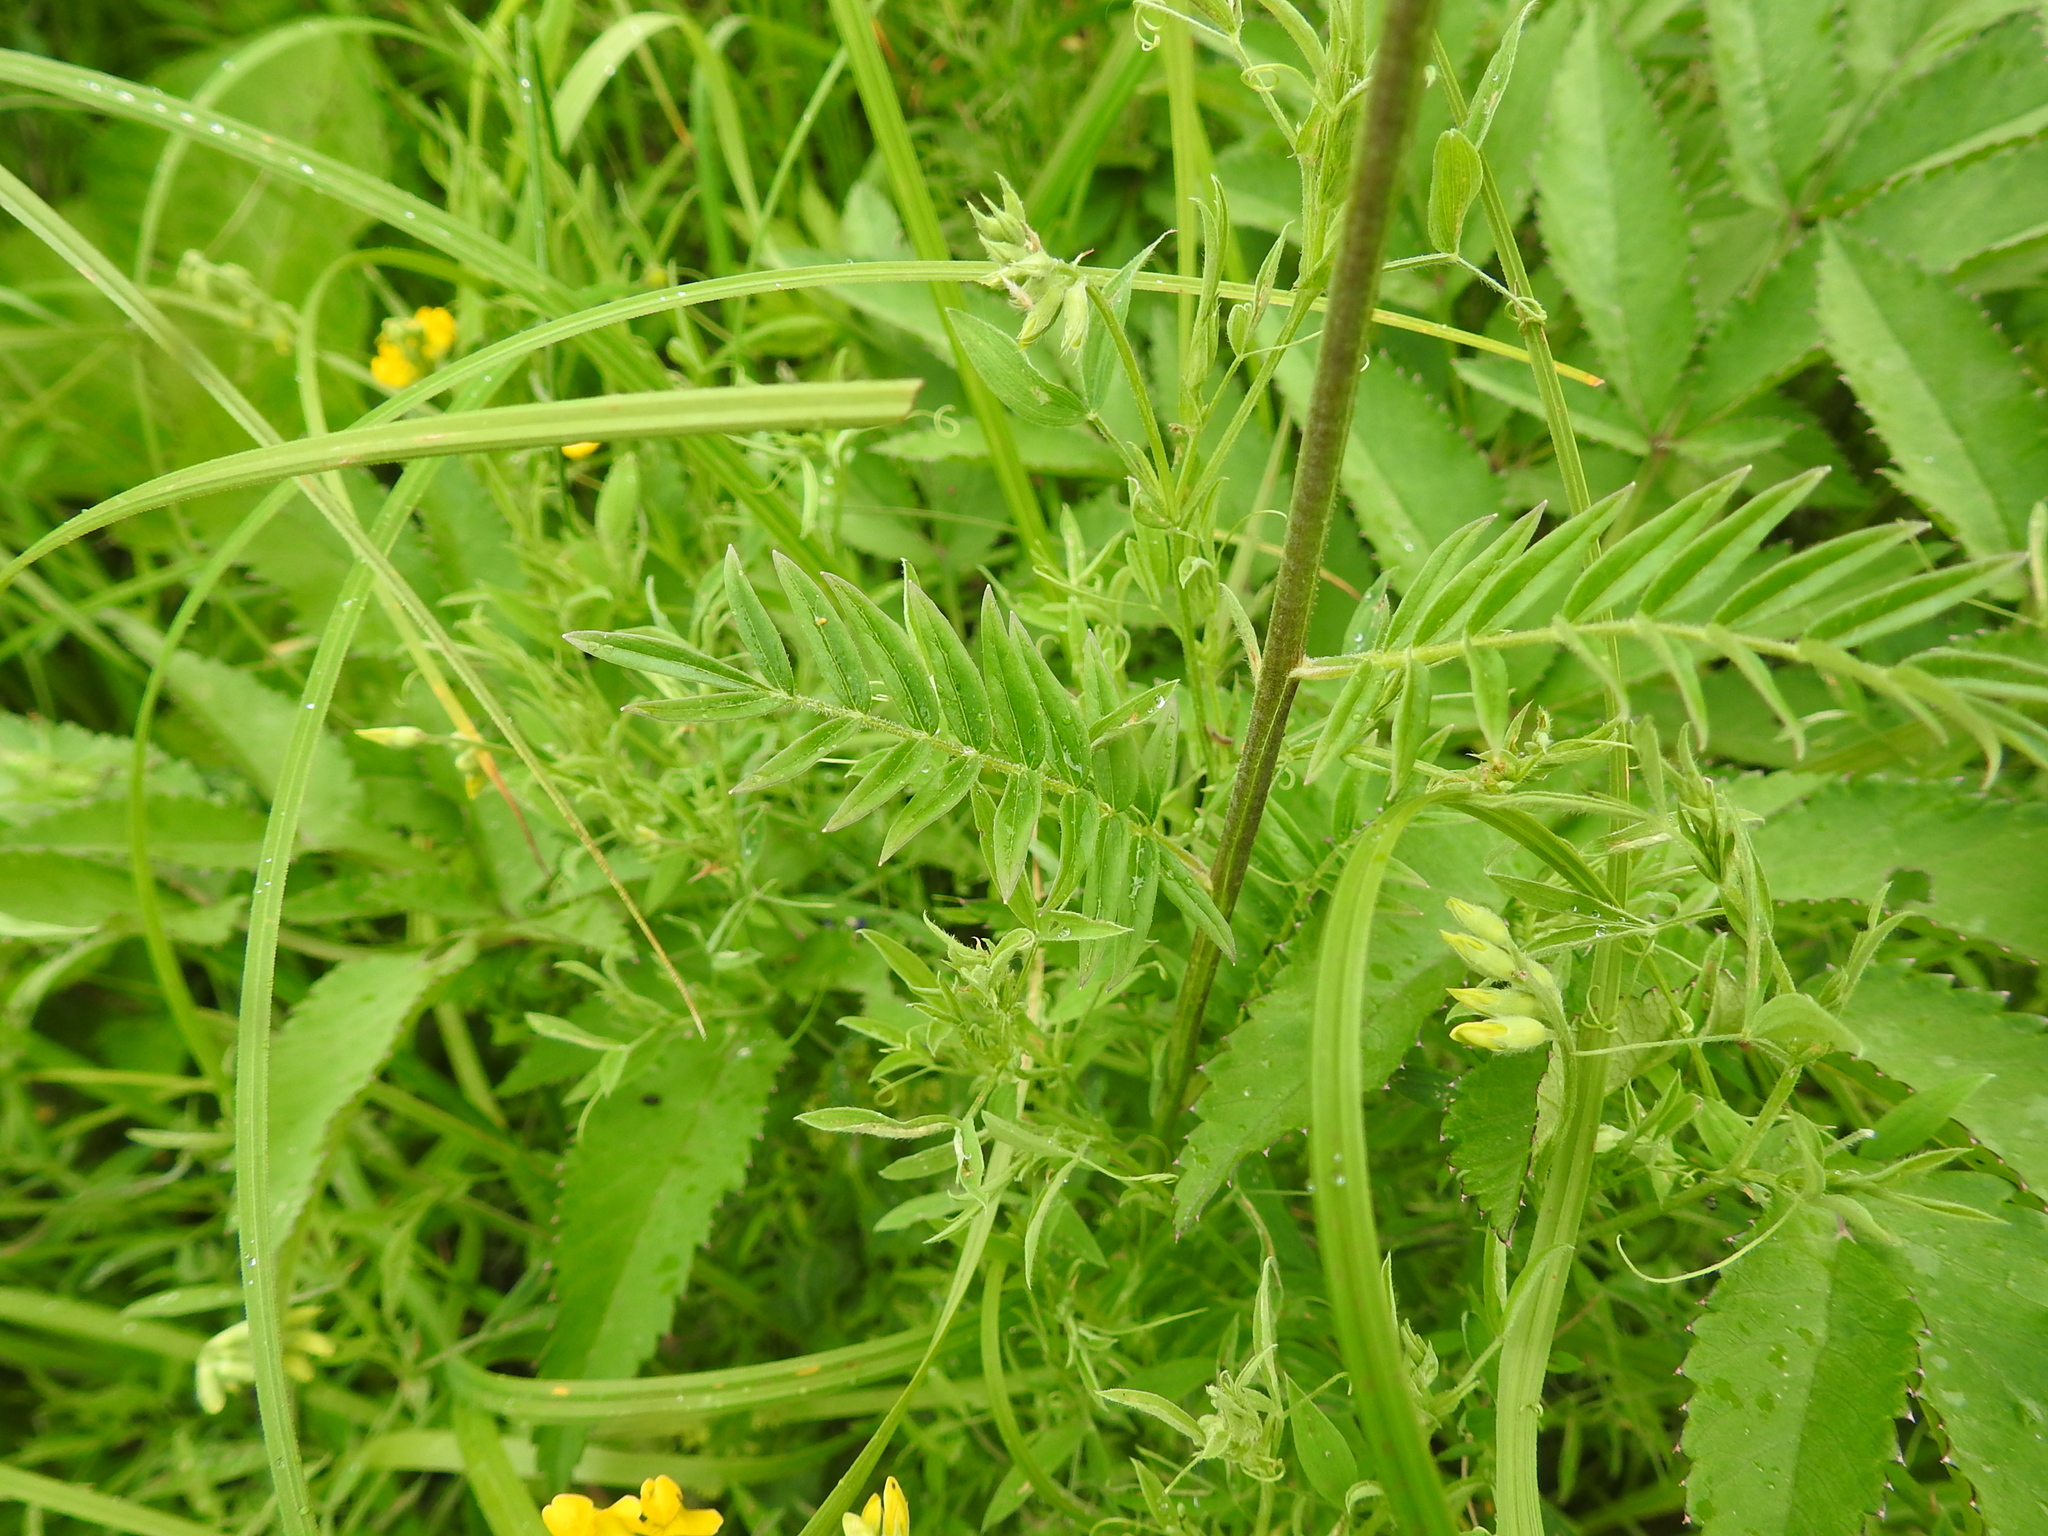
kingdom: Plantae
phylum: Tracheophyta
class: Magnoliopsida
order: Ericales
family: Polemoniaceae
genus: Polemonium
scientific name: Polemonium caeruleum
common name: Jacob's-ladder
